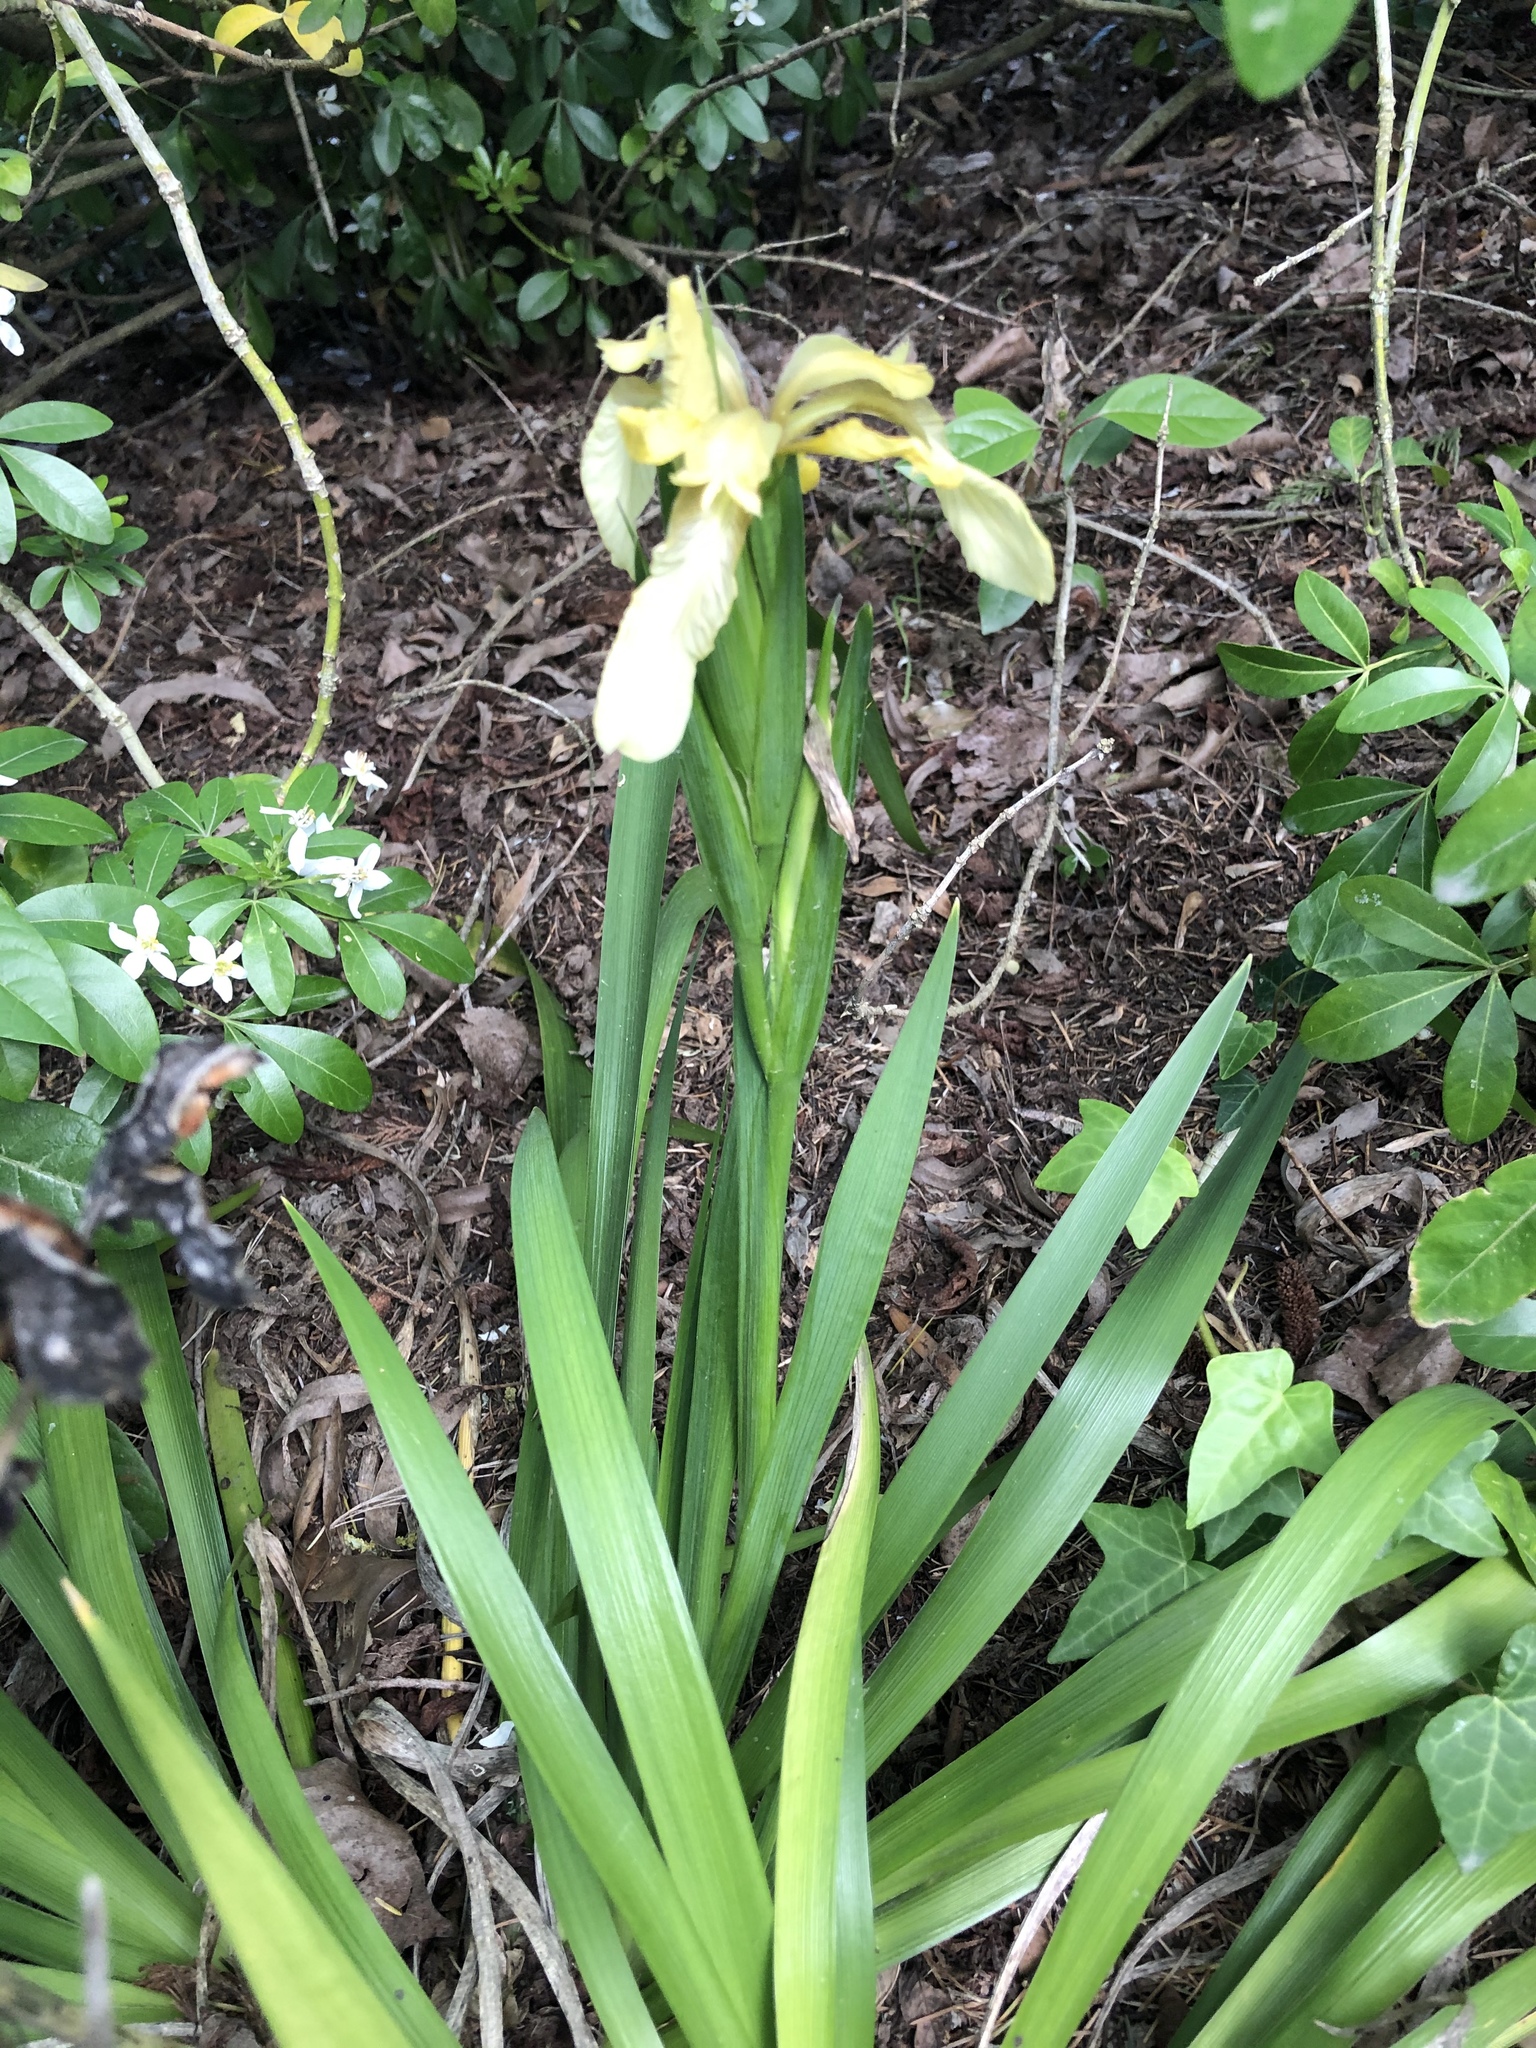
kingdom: Plantae
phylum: Tracheophyta
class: Liliopsida
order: Asparagales
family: Iridaceae
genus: Iris
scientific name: Iris foetidissima
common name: Stinking iris
